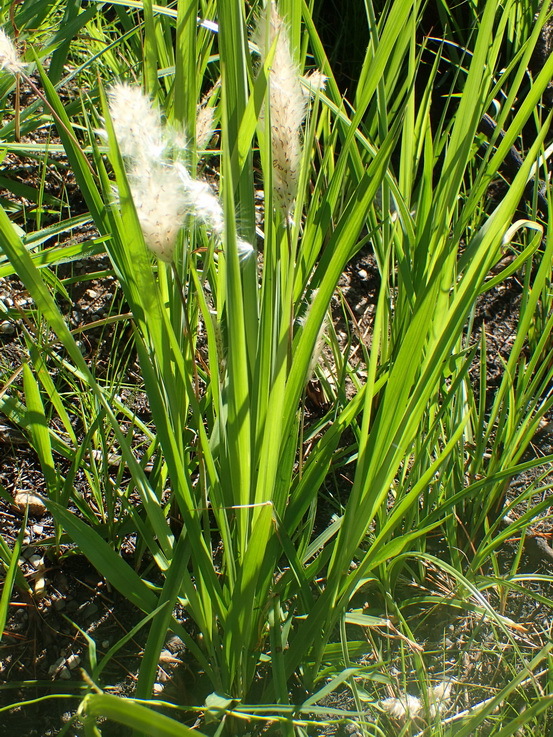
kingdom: Plantae
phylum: Tracheophyta
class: Liliopsida
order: Poales
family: Poaceae
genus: Imperata
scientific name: Imperata cylindrica
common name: Cogongrass
